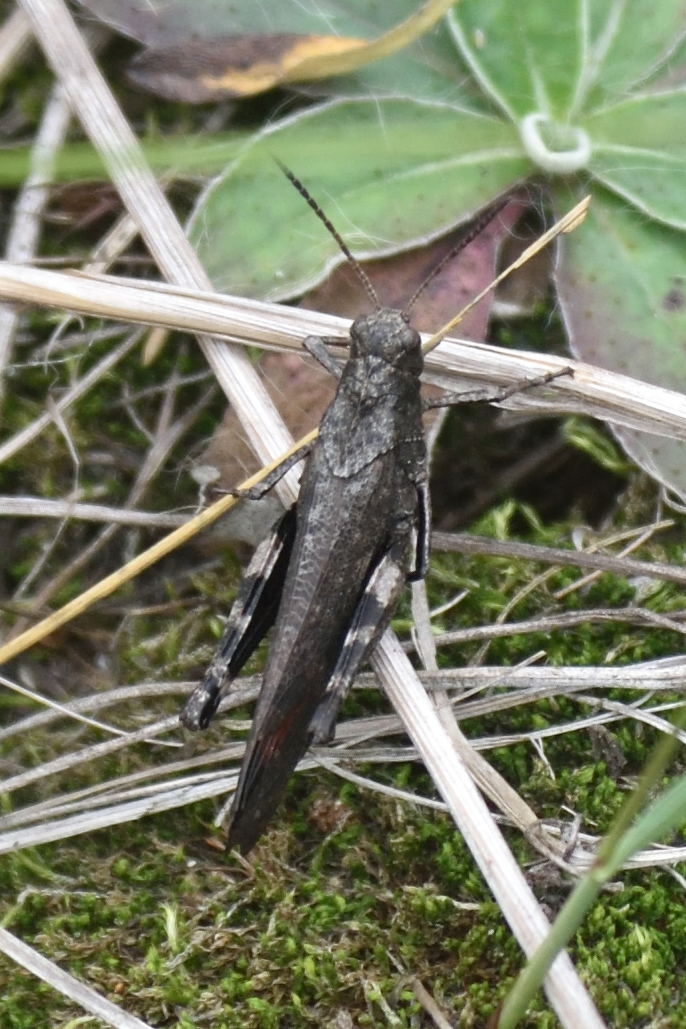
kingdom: Animalia
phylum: Arthropoda
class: Insecta
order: Orthoptera
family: Acrididae
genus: Psophus
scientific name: Psophus stridulus
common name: Rattle grasshopper
